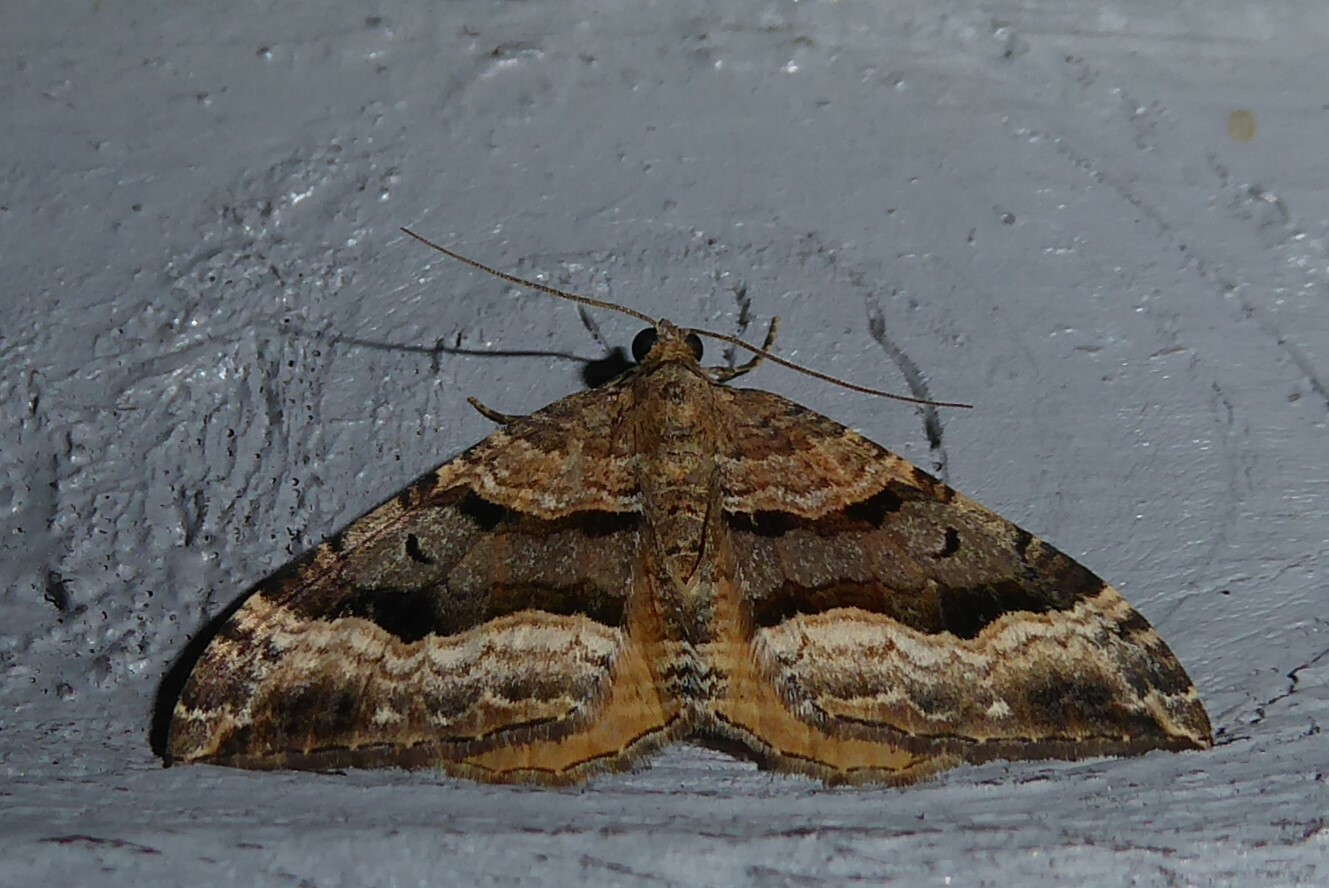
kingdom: Animalia
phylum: Arthropoda
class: Insecta
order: Lepidoptera
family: Geometridae
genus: Hydriomena
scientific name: Hydriomena deltoidata
